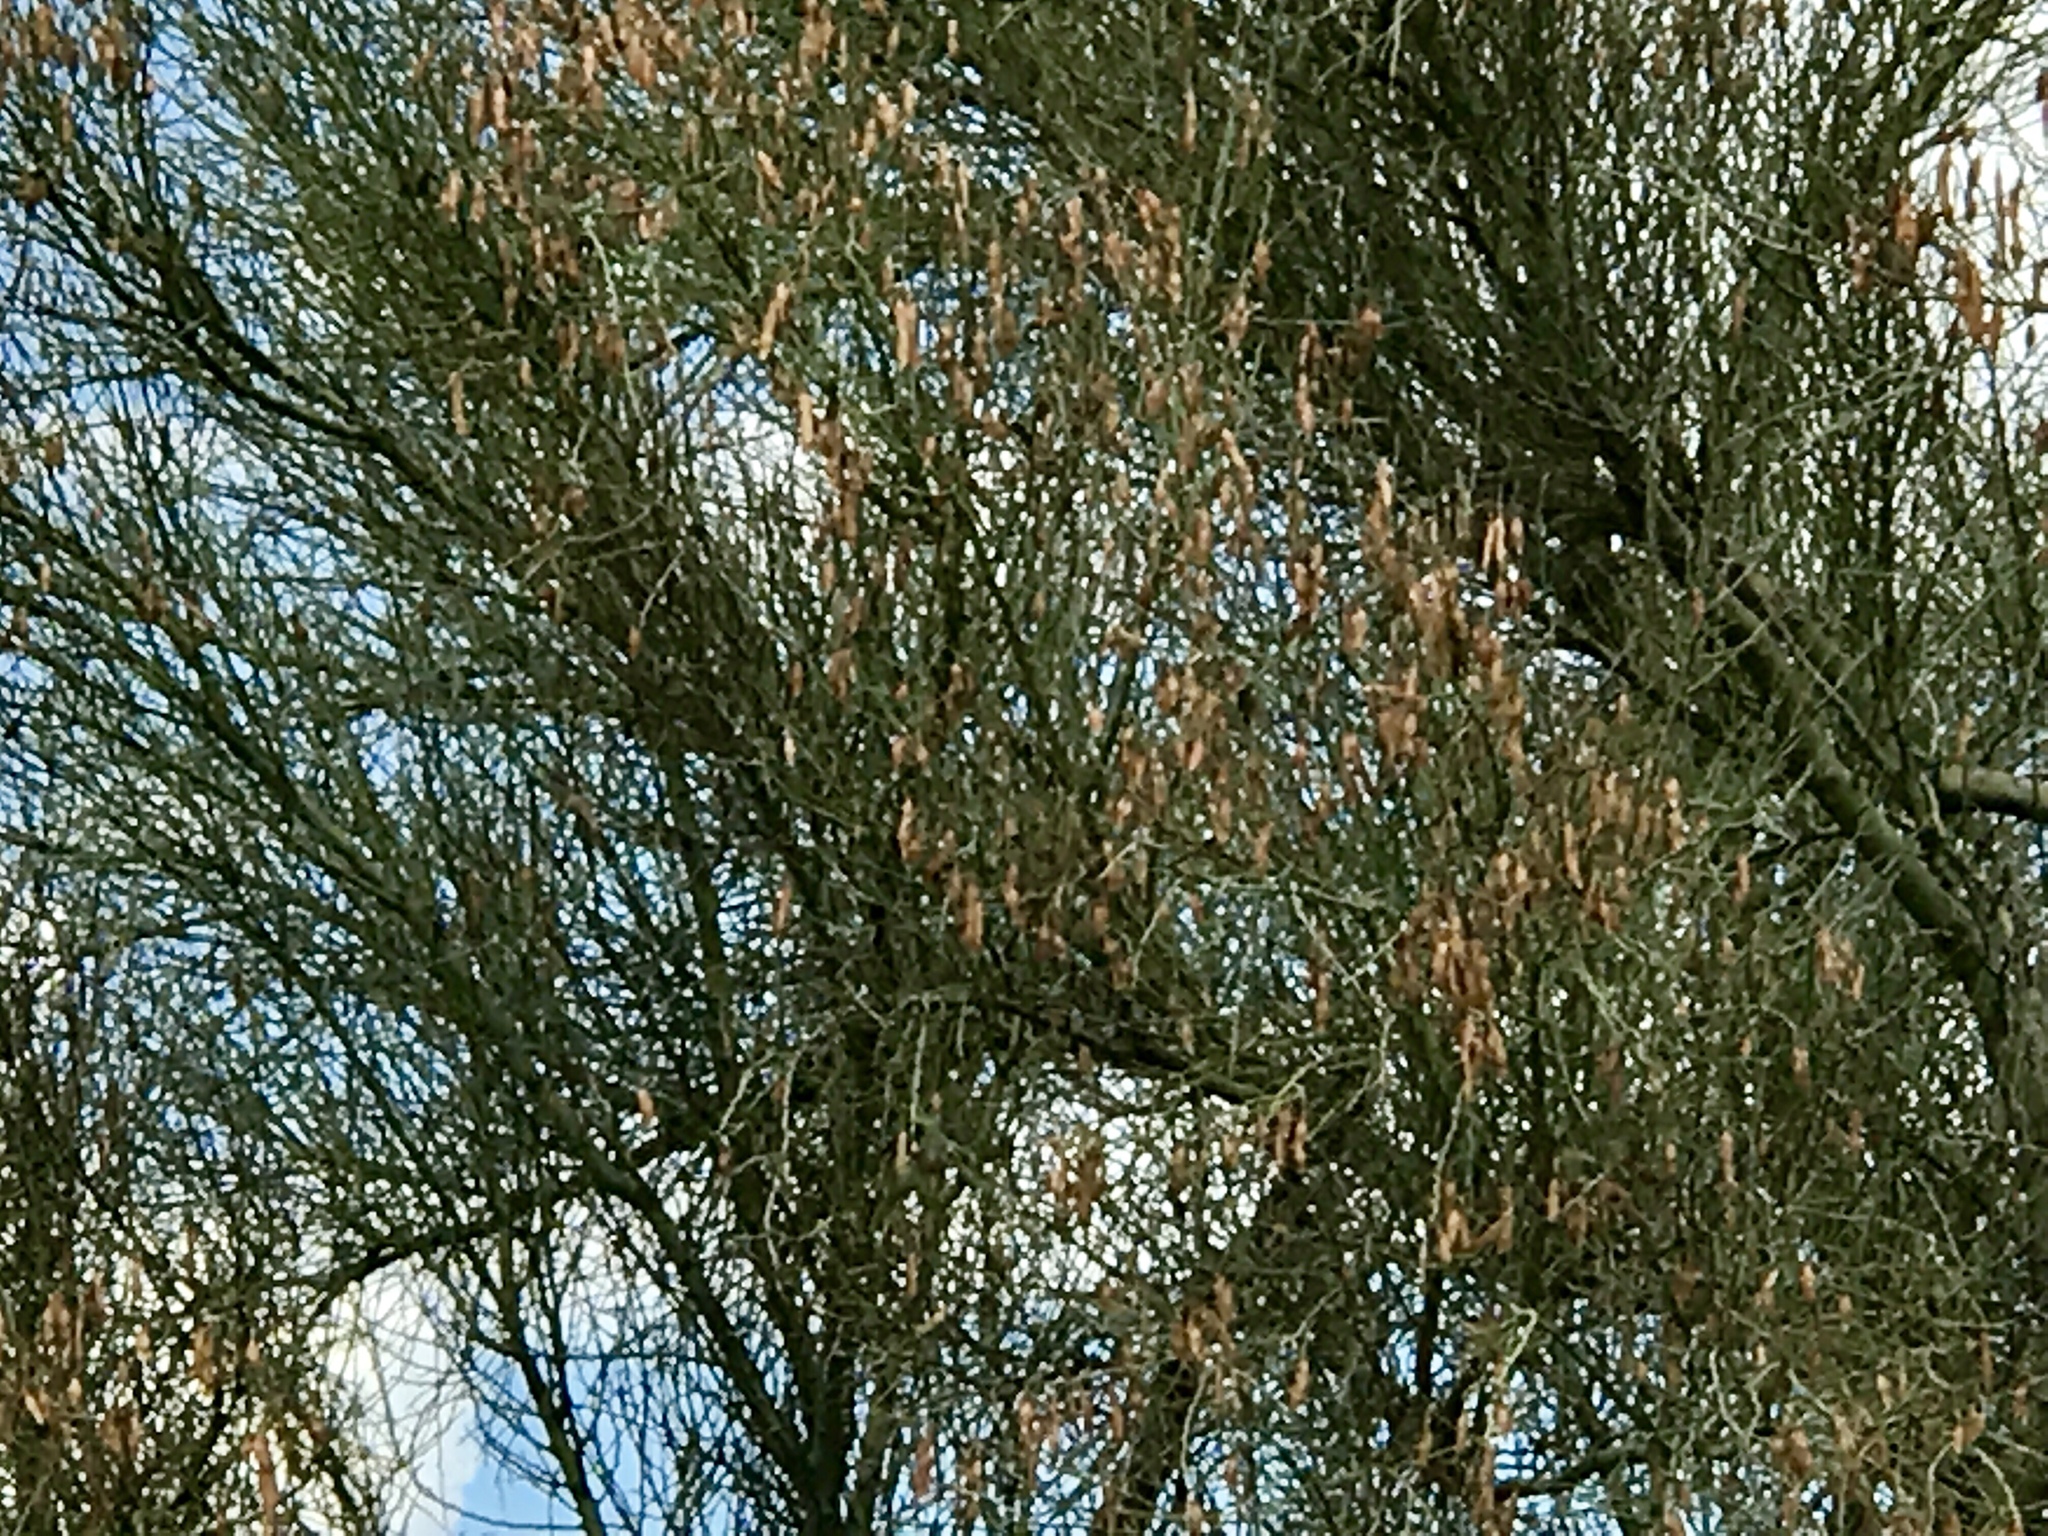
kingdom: Plantae
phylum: Tracheophyta
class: Magnoliopsida
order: Fabales
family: Fabaceae
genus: Parkinsonia
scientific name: Parkinsonia florida
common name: Blue paloverde
